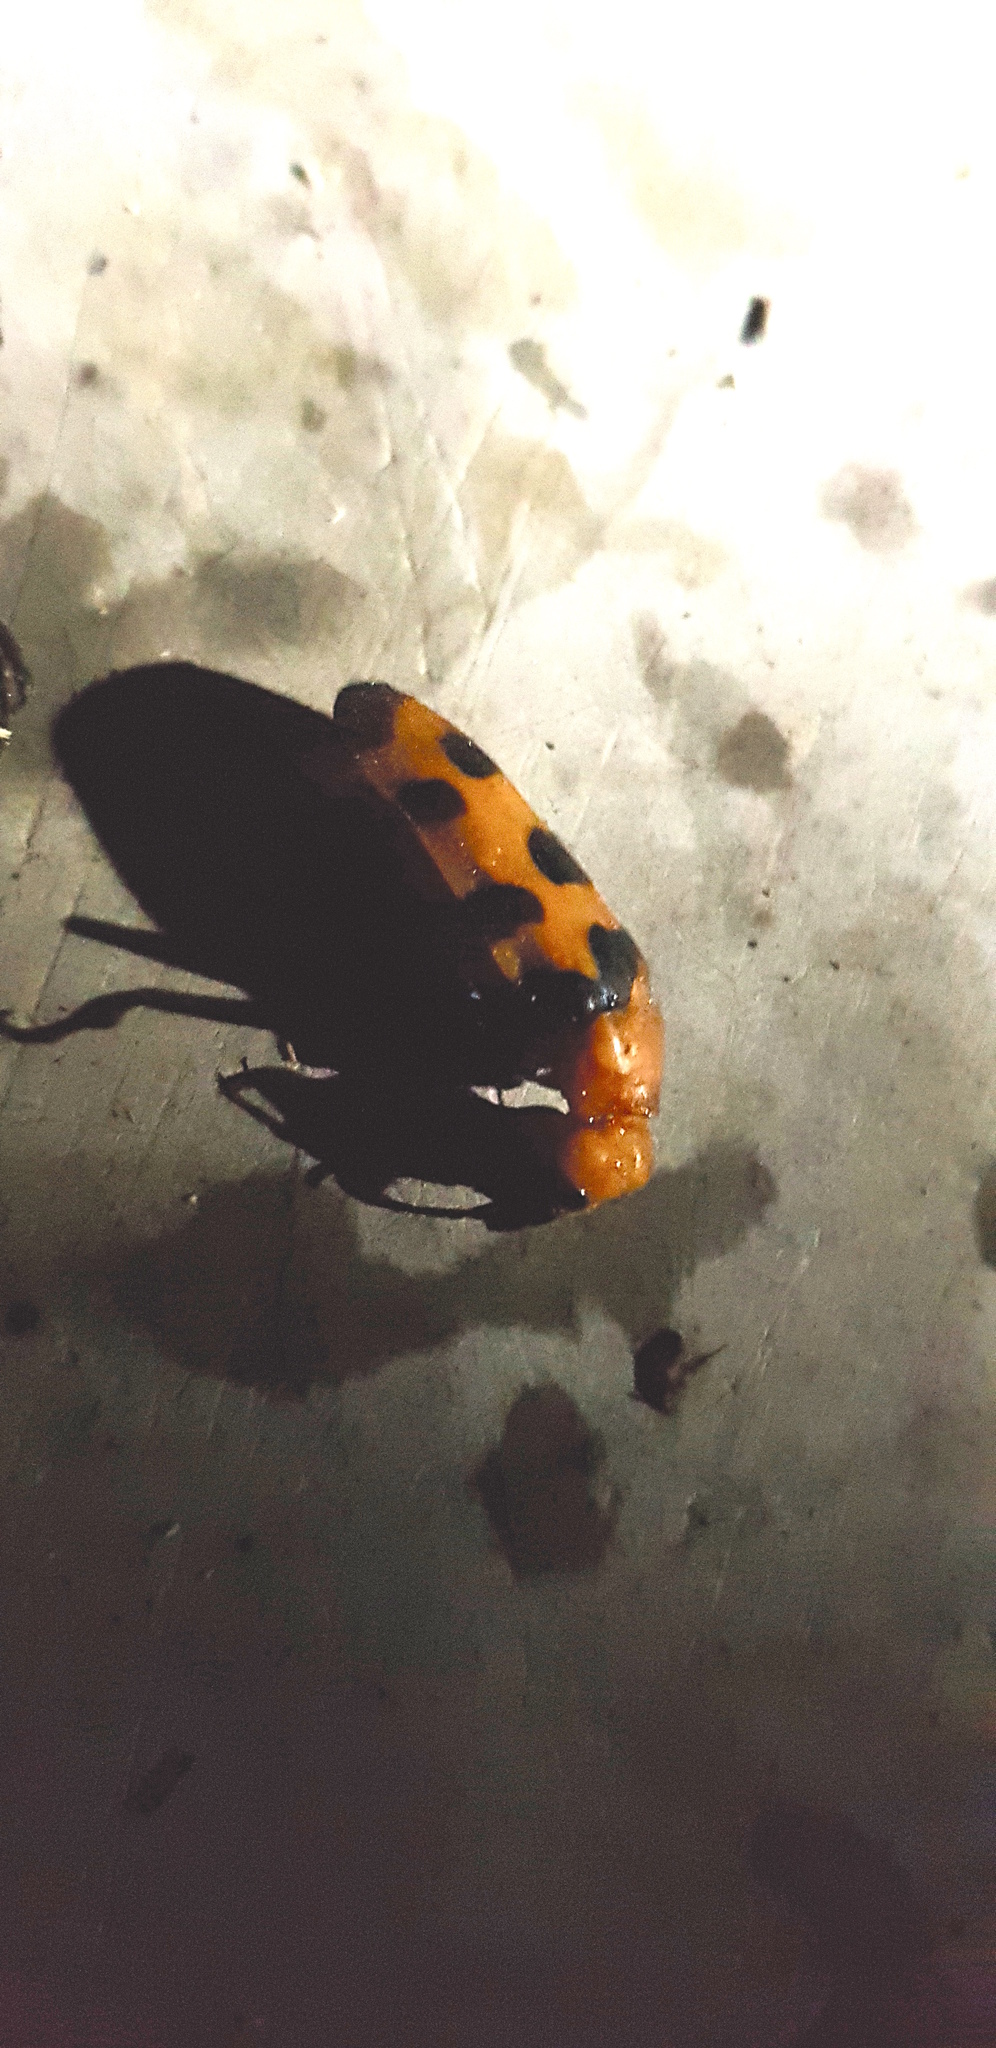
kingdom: Animalia
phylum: Arthropoda
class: Insecta
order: Coleoptera
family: Meloidae
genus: Cissites
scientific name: Cissites auriculata
